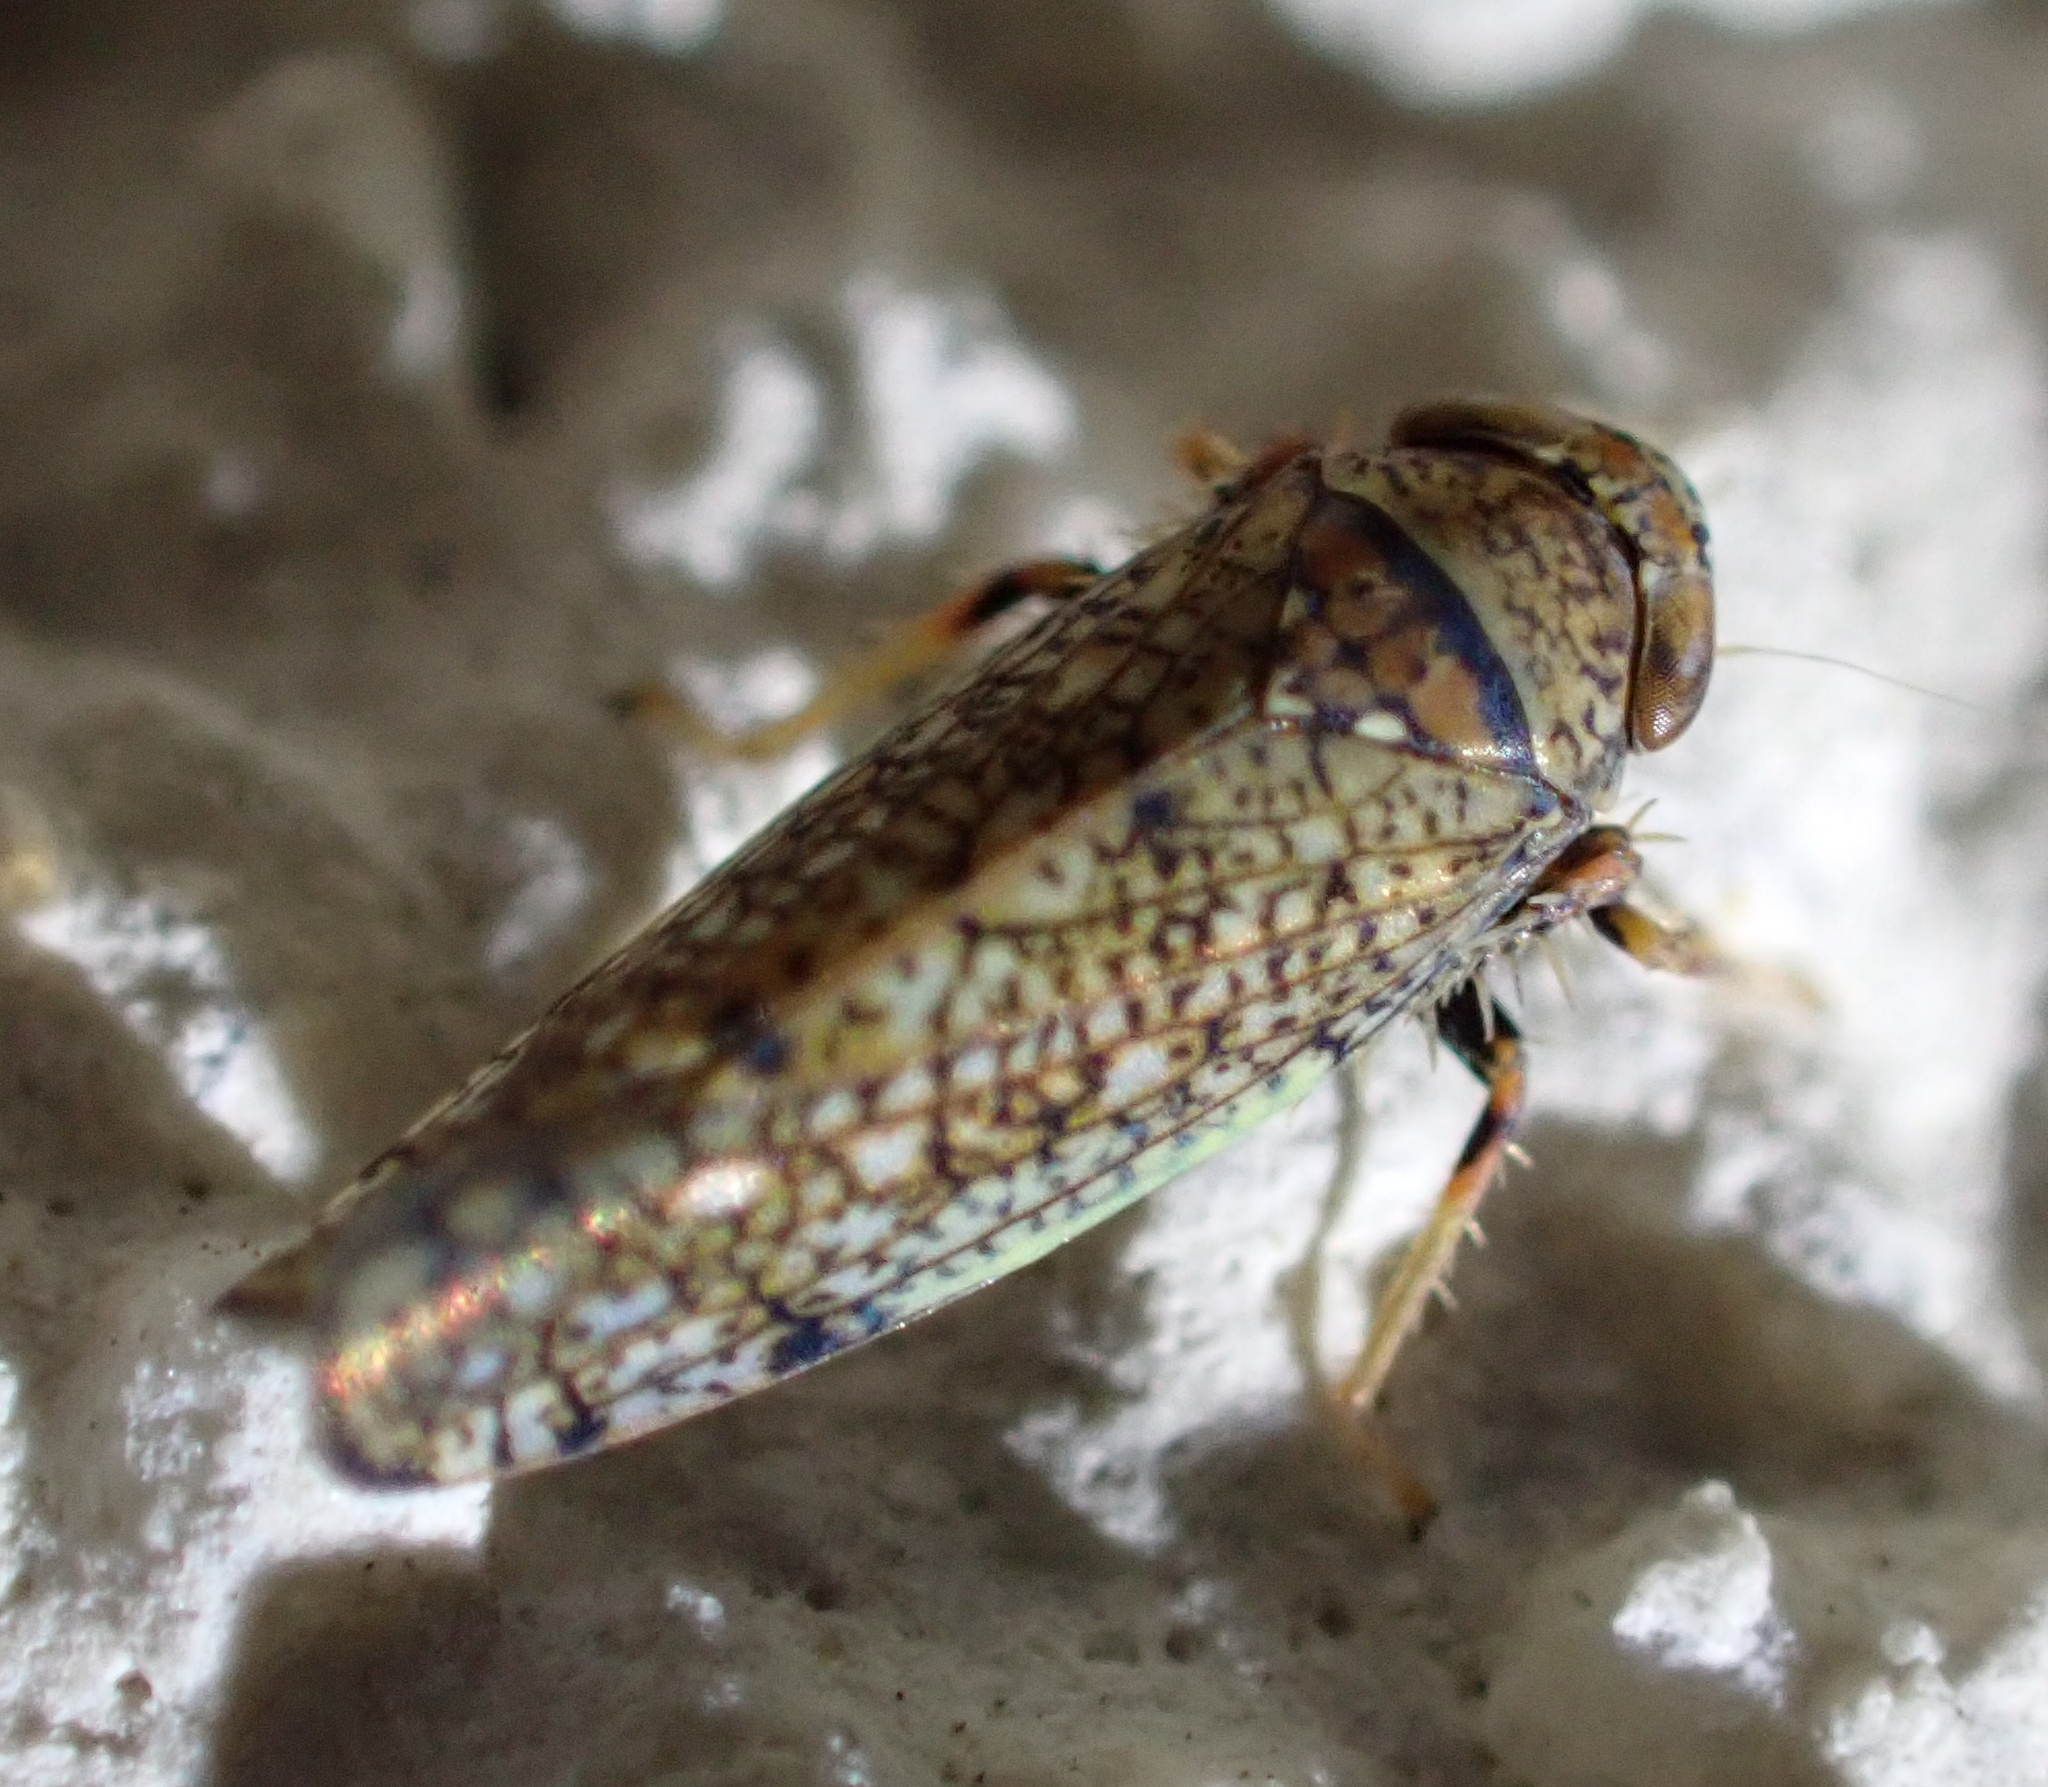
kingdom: Animalia
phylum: Arthropoda
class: Insecta
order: Hemiptera
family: Cicadellidae
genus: Orientus
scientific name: Orientus ishidae
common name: Japanese leafhopper
